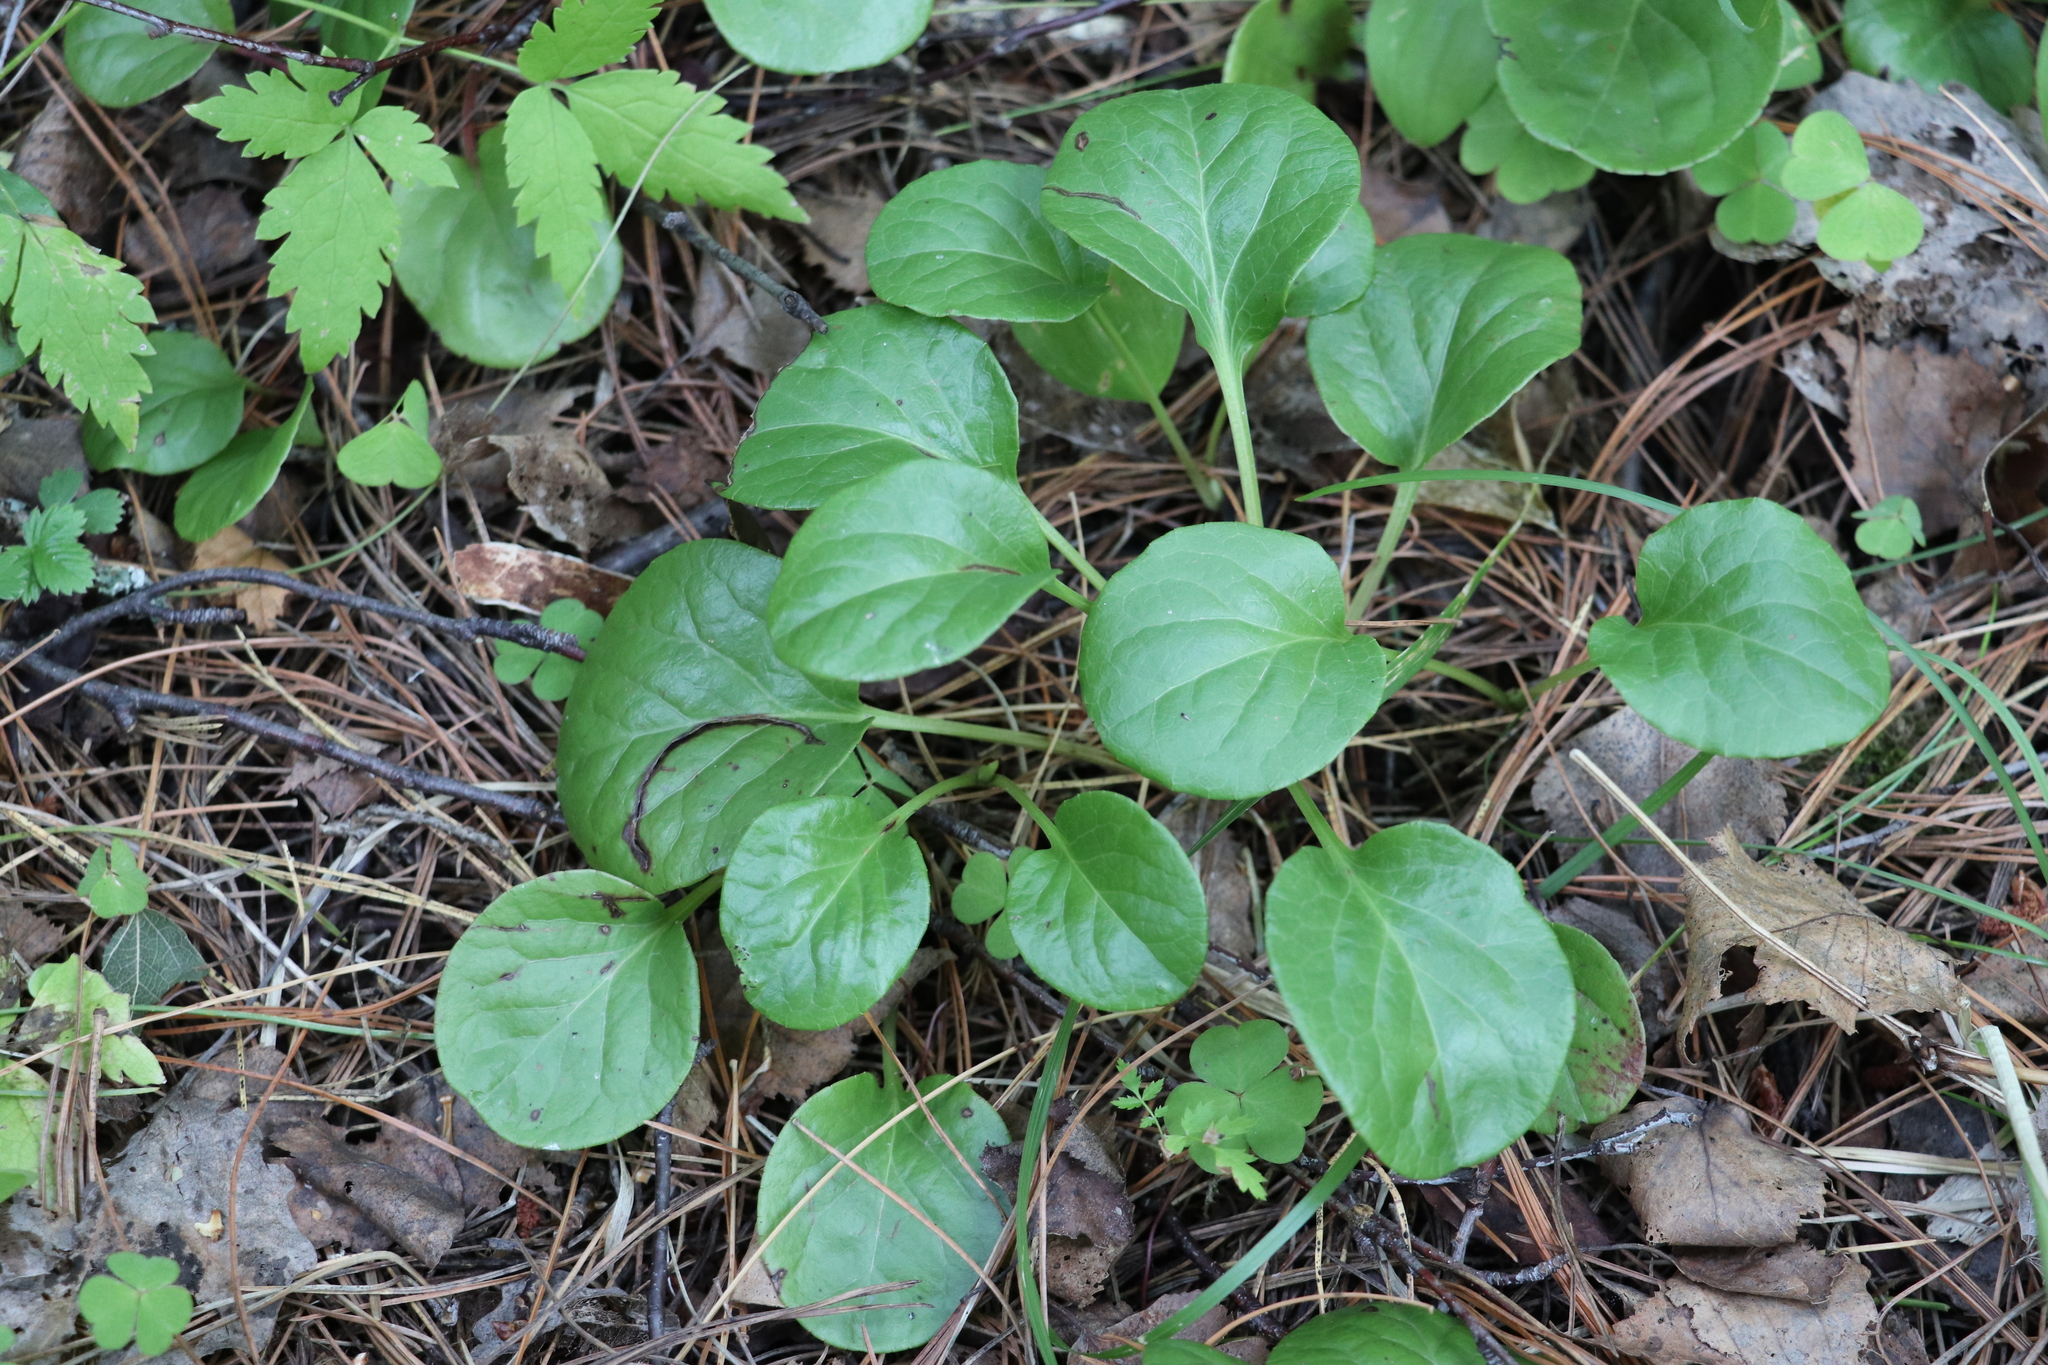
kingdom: Plantae
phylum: Tracheophyta
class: Magnoliopsida
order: Ericales
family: Ericaceae
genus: Pyrola
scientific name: Pyrola rotundifolia
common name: Round-leaved wintergreen
